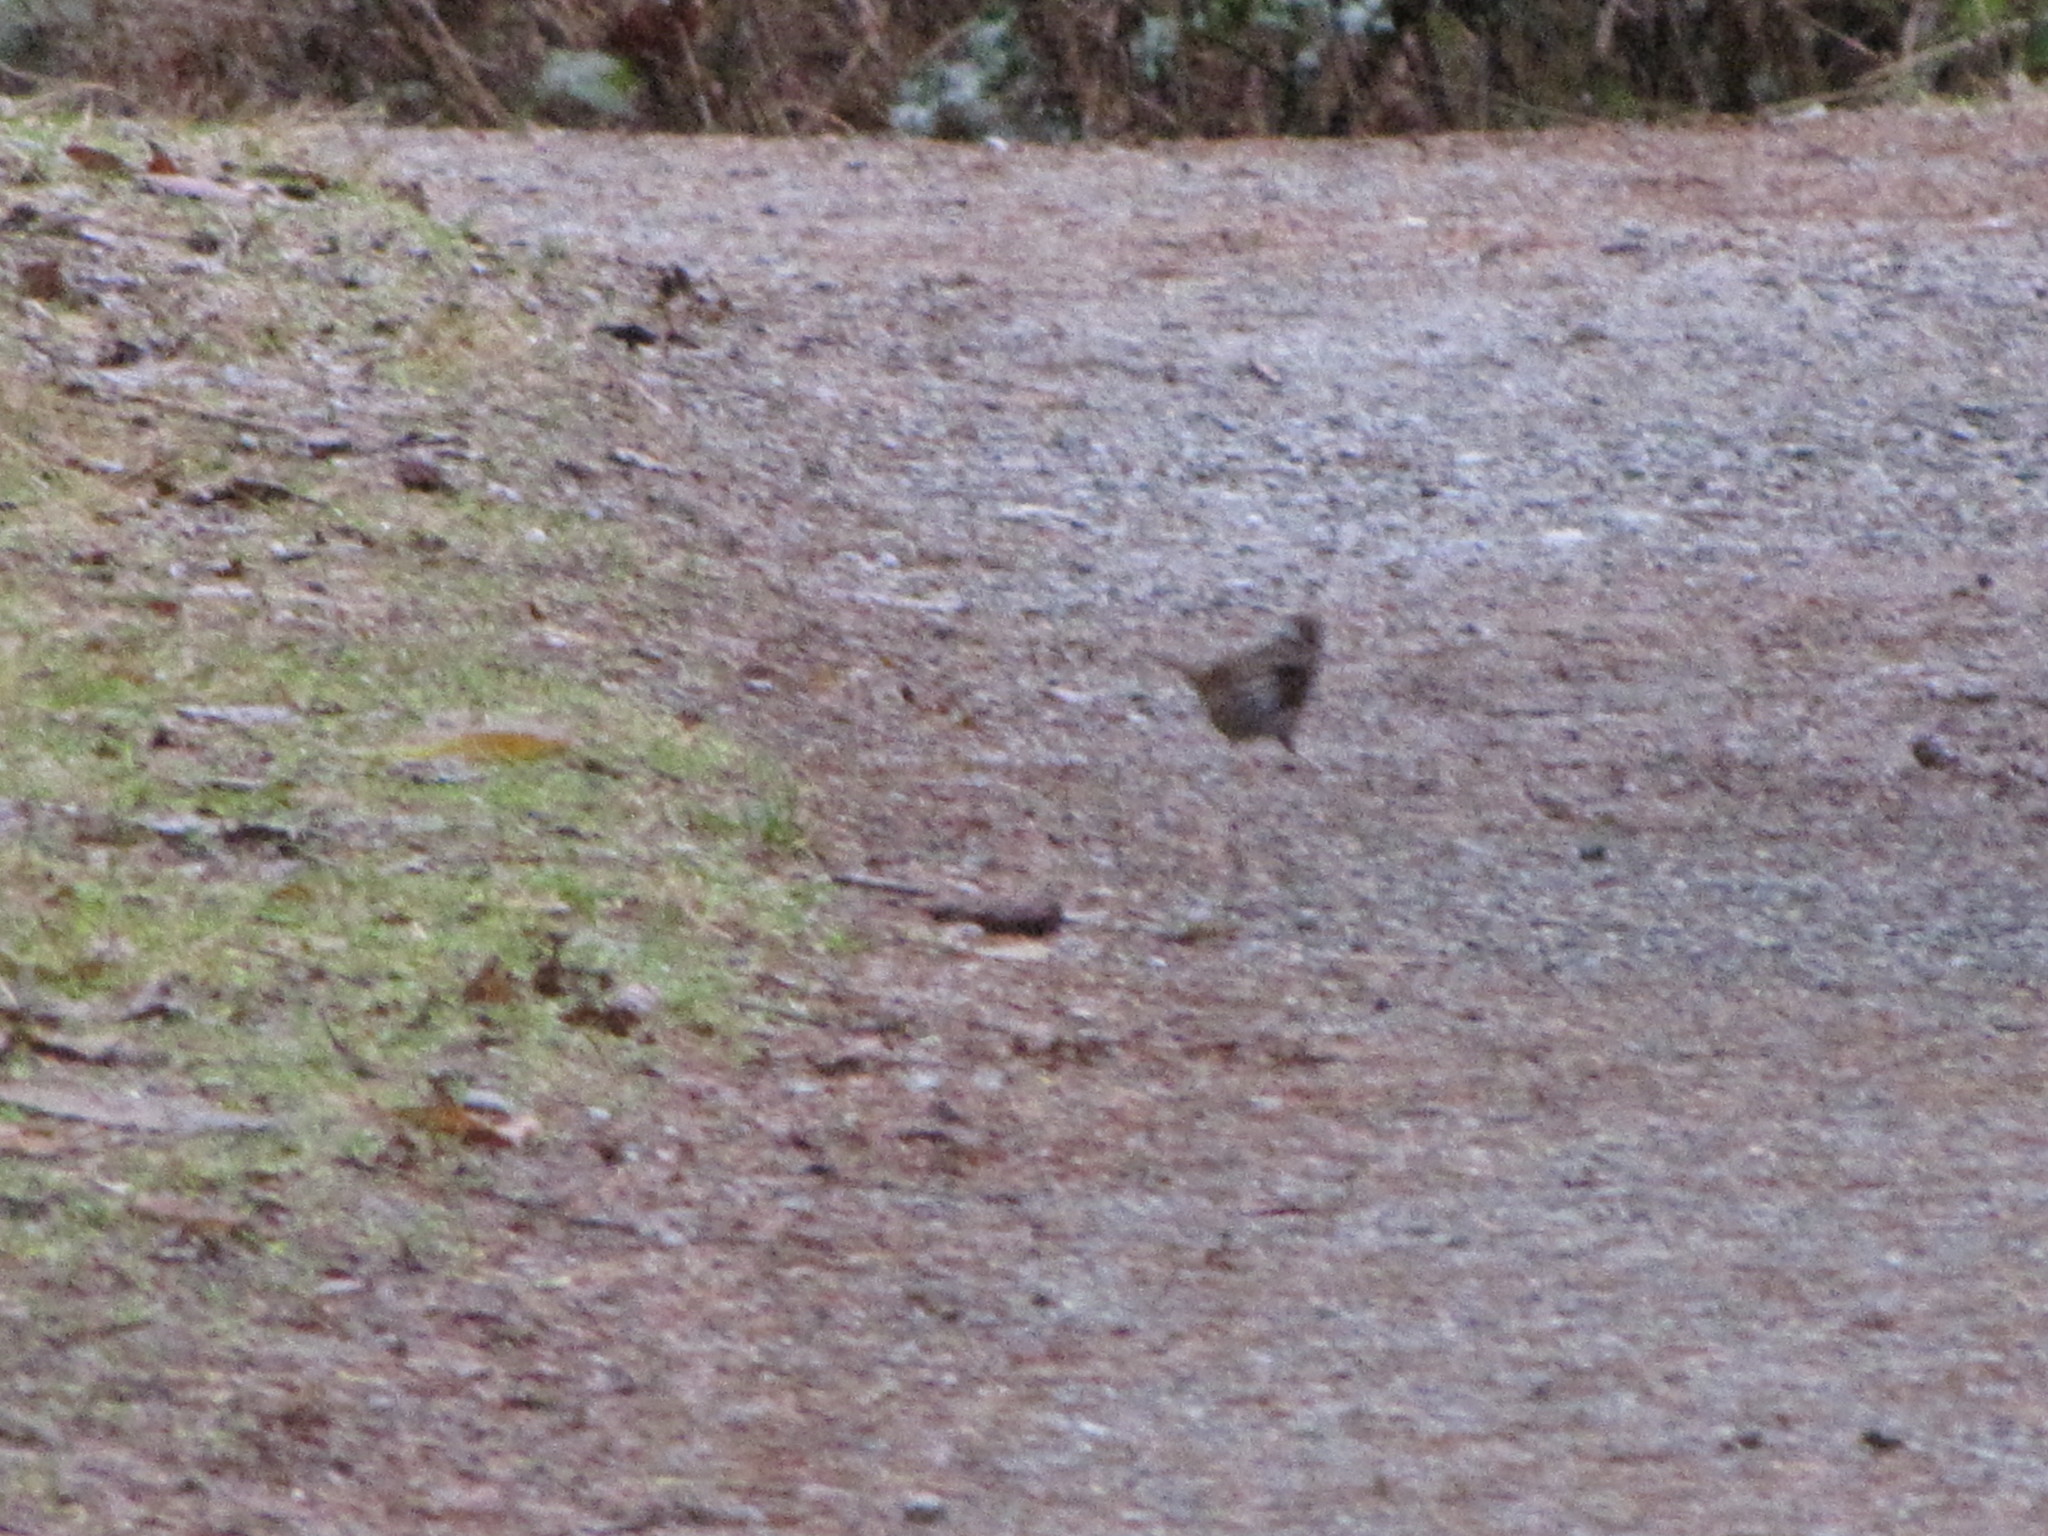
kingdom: Animalia
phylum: Chordata
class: Aves
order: Passeriformes
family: Passerellidae
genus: Melospiza
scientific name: Melospiza melodia
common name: Song sparrow
